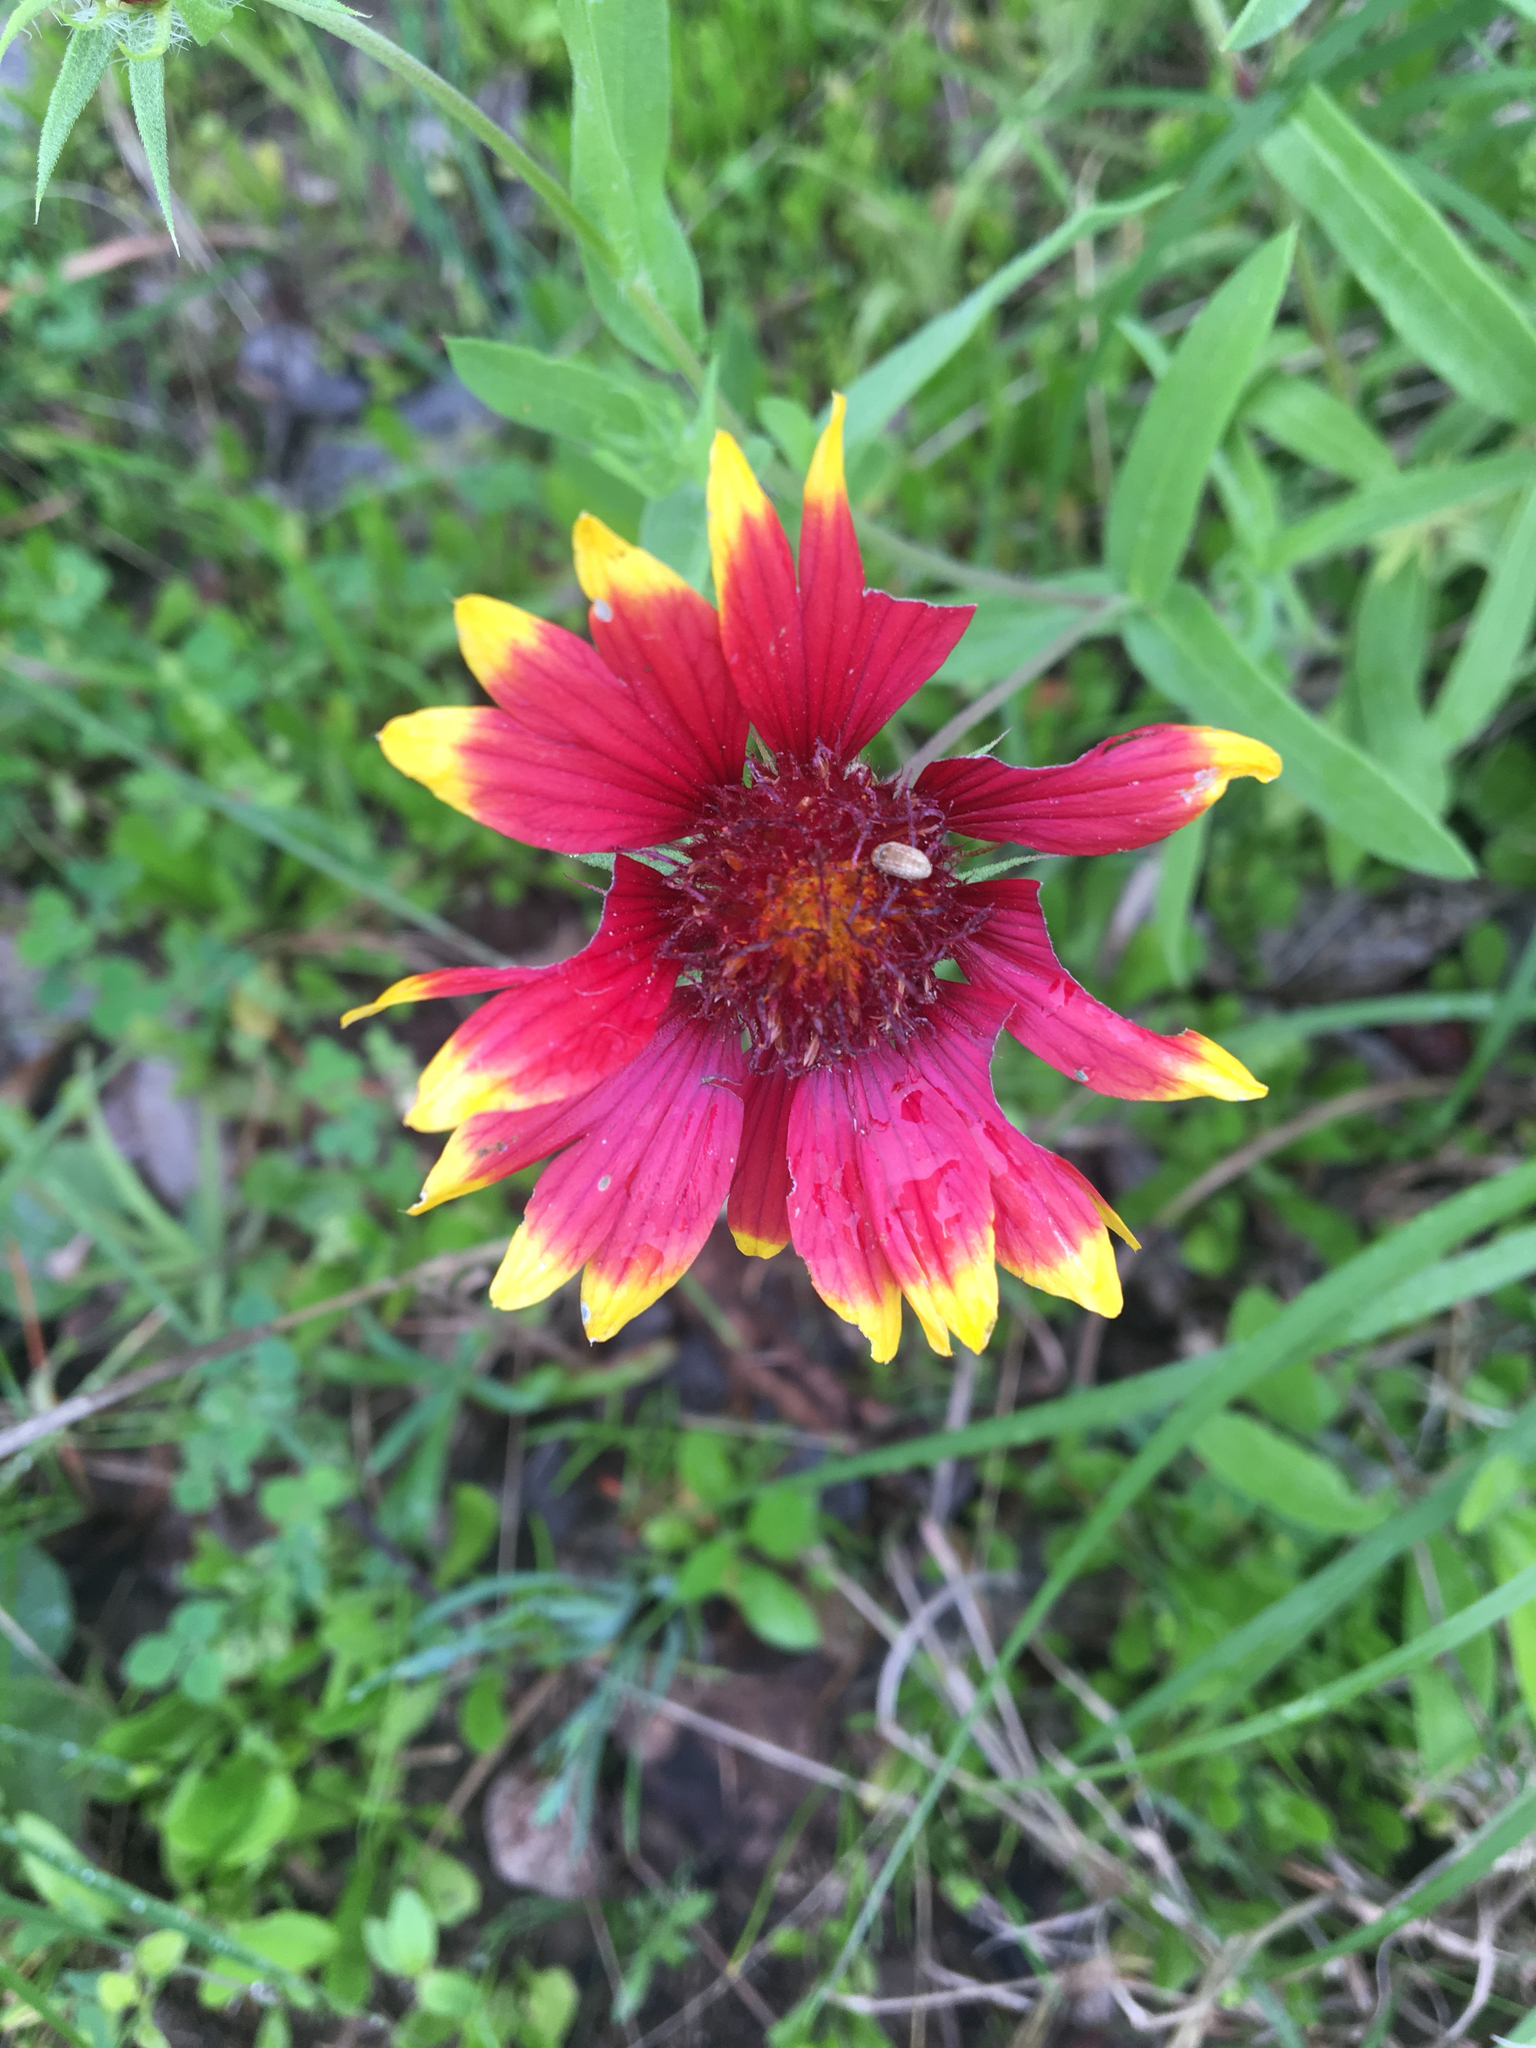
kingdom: Plantae
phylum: Tracheophyta
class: Magnoliopsida
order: Asterales
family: Asteraceae
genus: Gaillardia
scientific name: Gaillardia pulchella
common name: Firewheel
